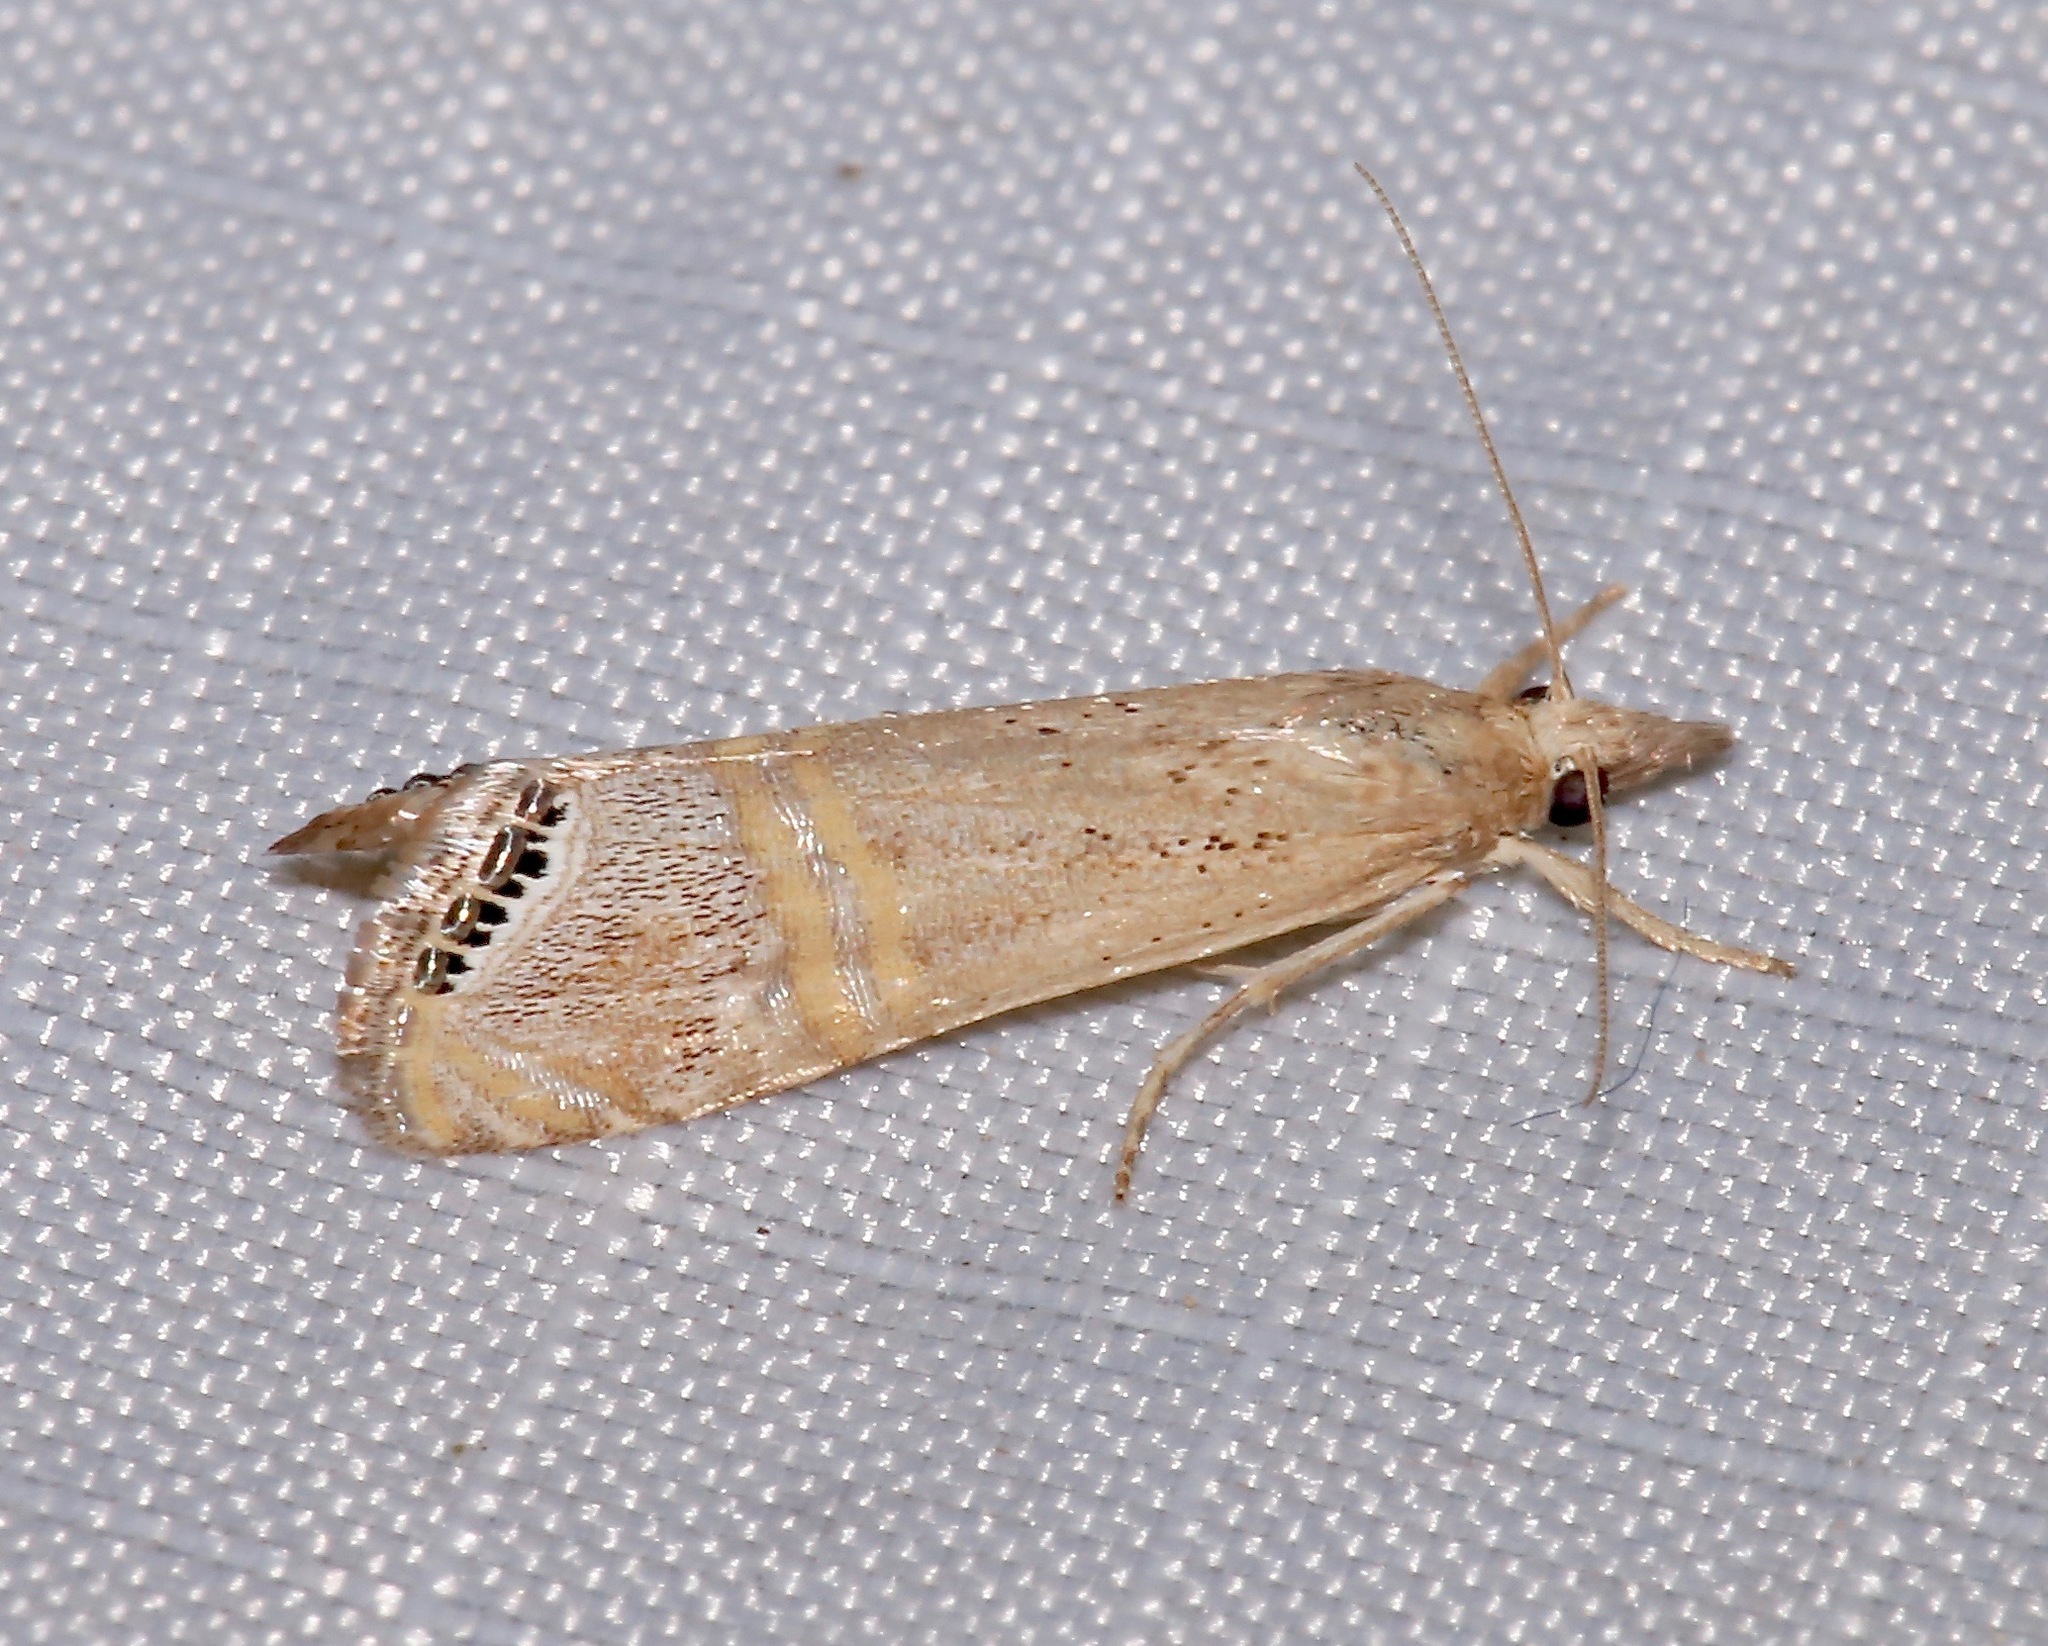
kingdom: Animalia
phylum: Arthropoda
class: Insecta
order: Lepidoptera
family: Crambidae
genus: Euchromius
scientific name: Euchromius ocellea
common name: Necklace veneer moth
